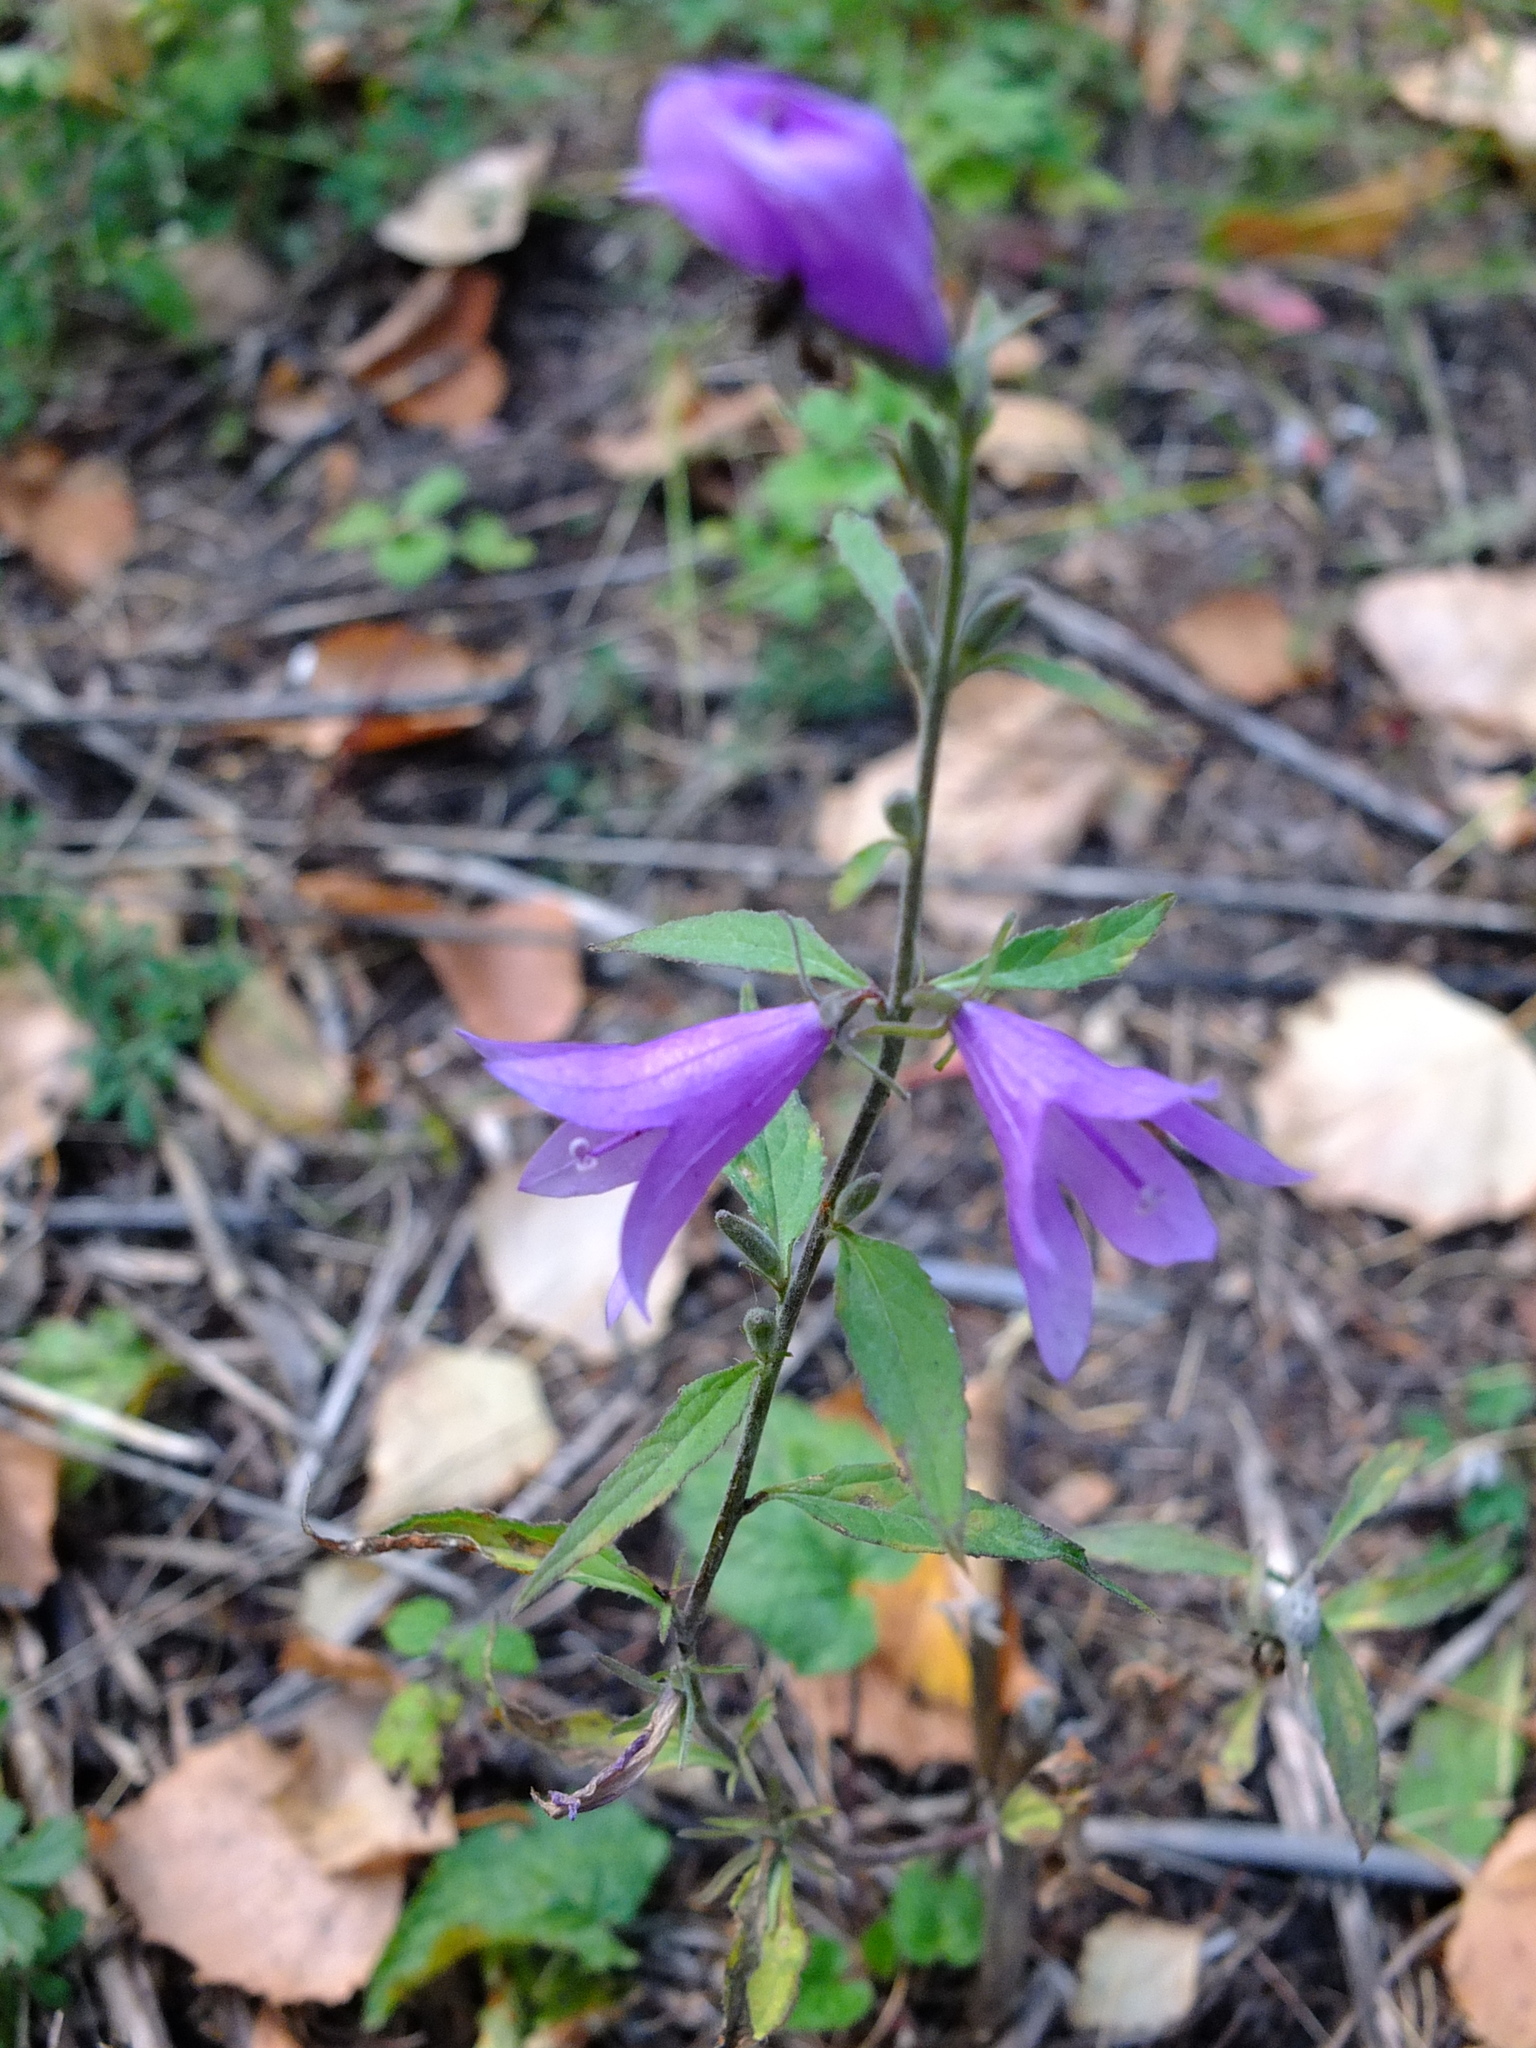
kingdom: Plantae
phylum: Tracheophyta
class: Magnoliopsida
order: Asterales
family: Campanulaceae
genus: Campanula
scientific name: Campanula rapunculoides
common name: Creeping bellflower
